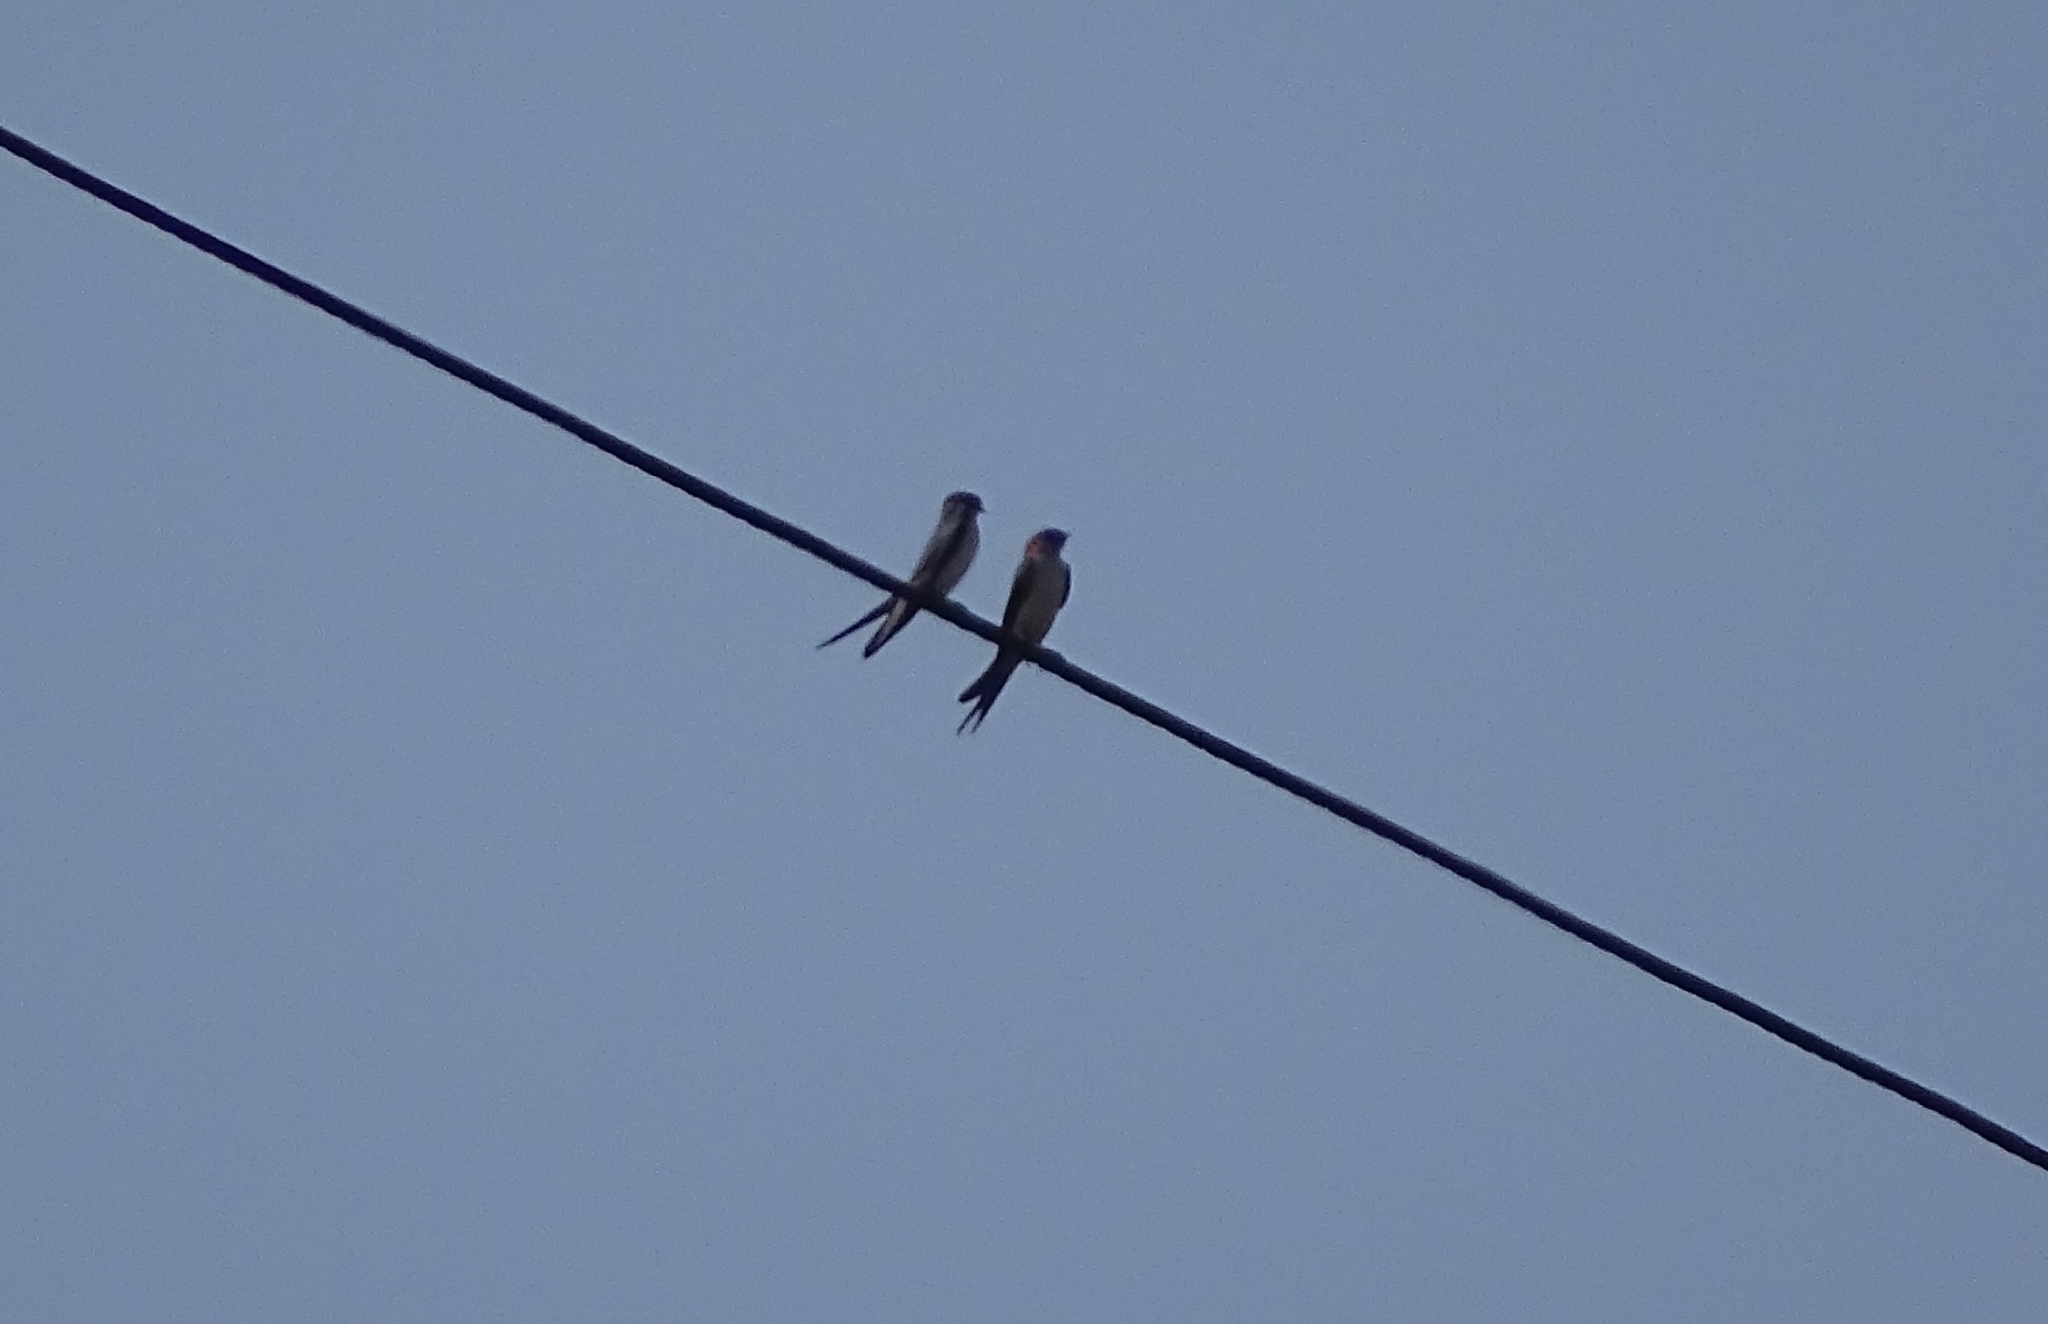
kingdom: Animalia
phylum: Chordata
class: Aves
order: Passeriformes
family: Hirundinidae
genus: Cecropis
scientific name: Cecropis daurica
